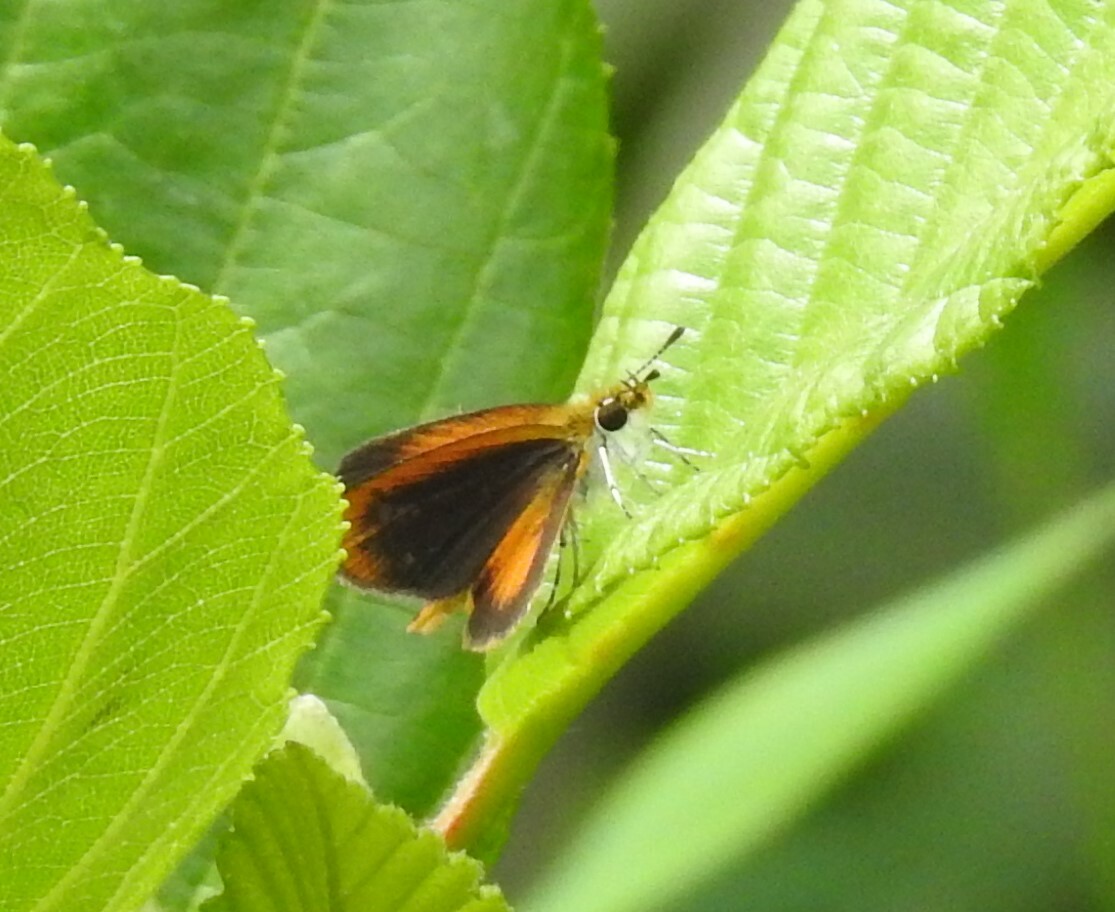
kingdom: Animalia
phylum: Arthropoda
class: Insecta
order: Lepidoptera
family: Hesperiidae
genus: Ancyloxypha
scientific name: Ancyloxypha numitor
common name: Least skipper
